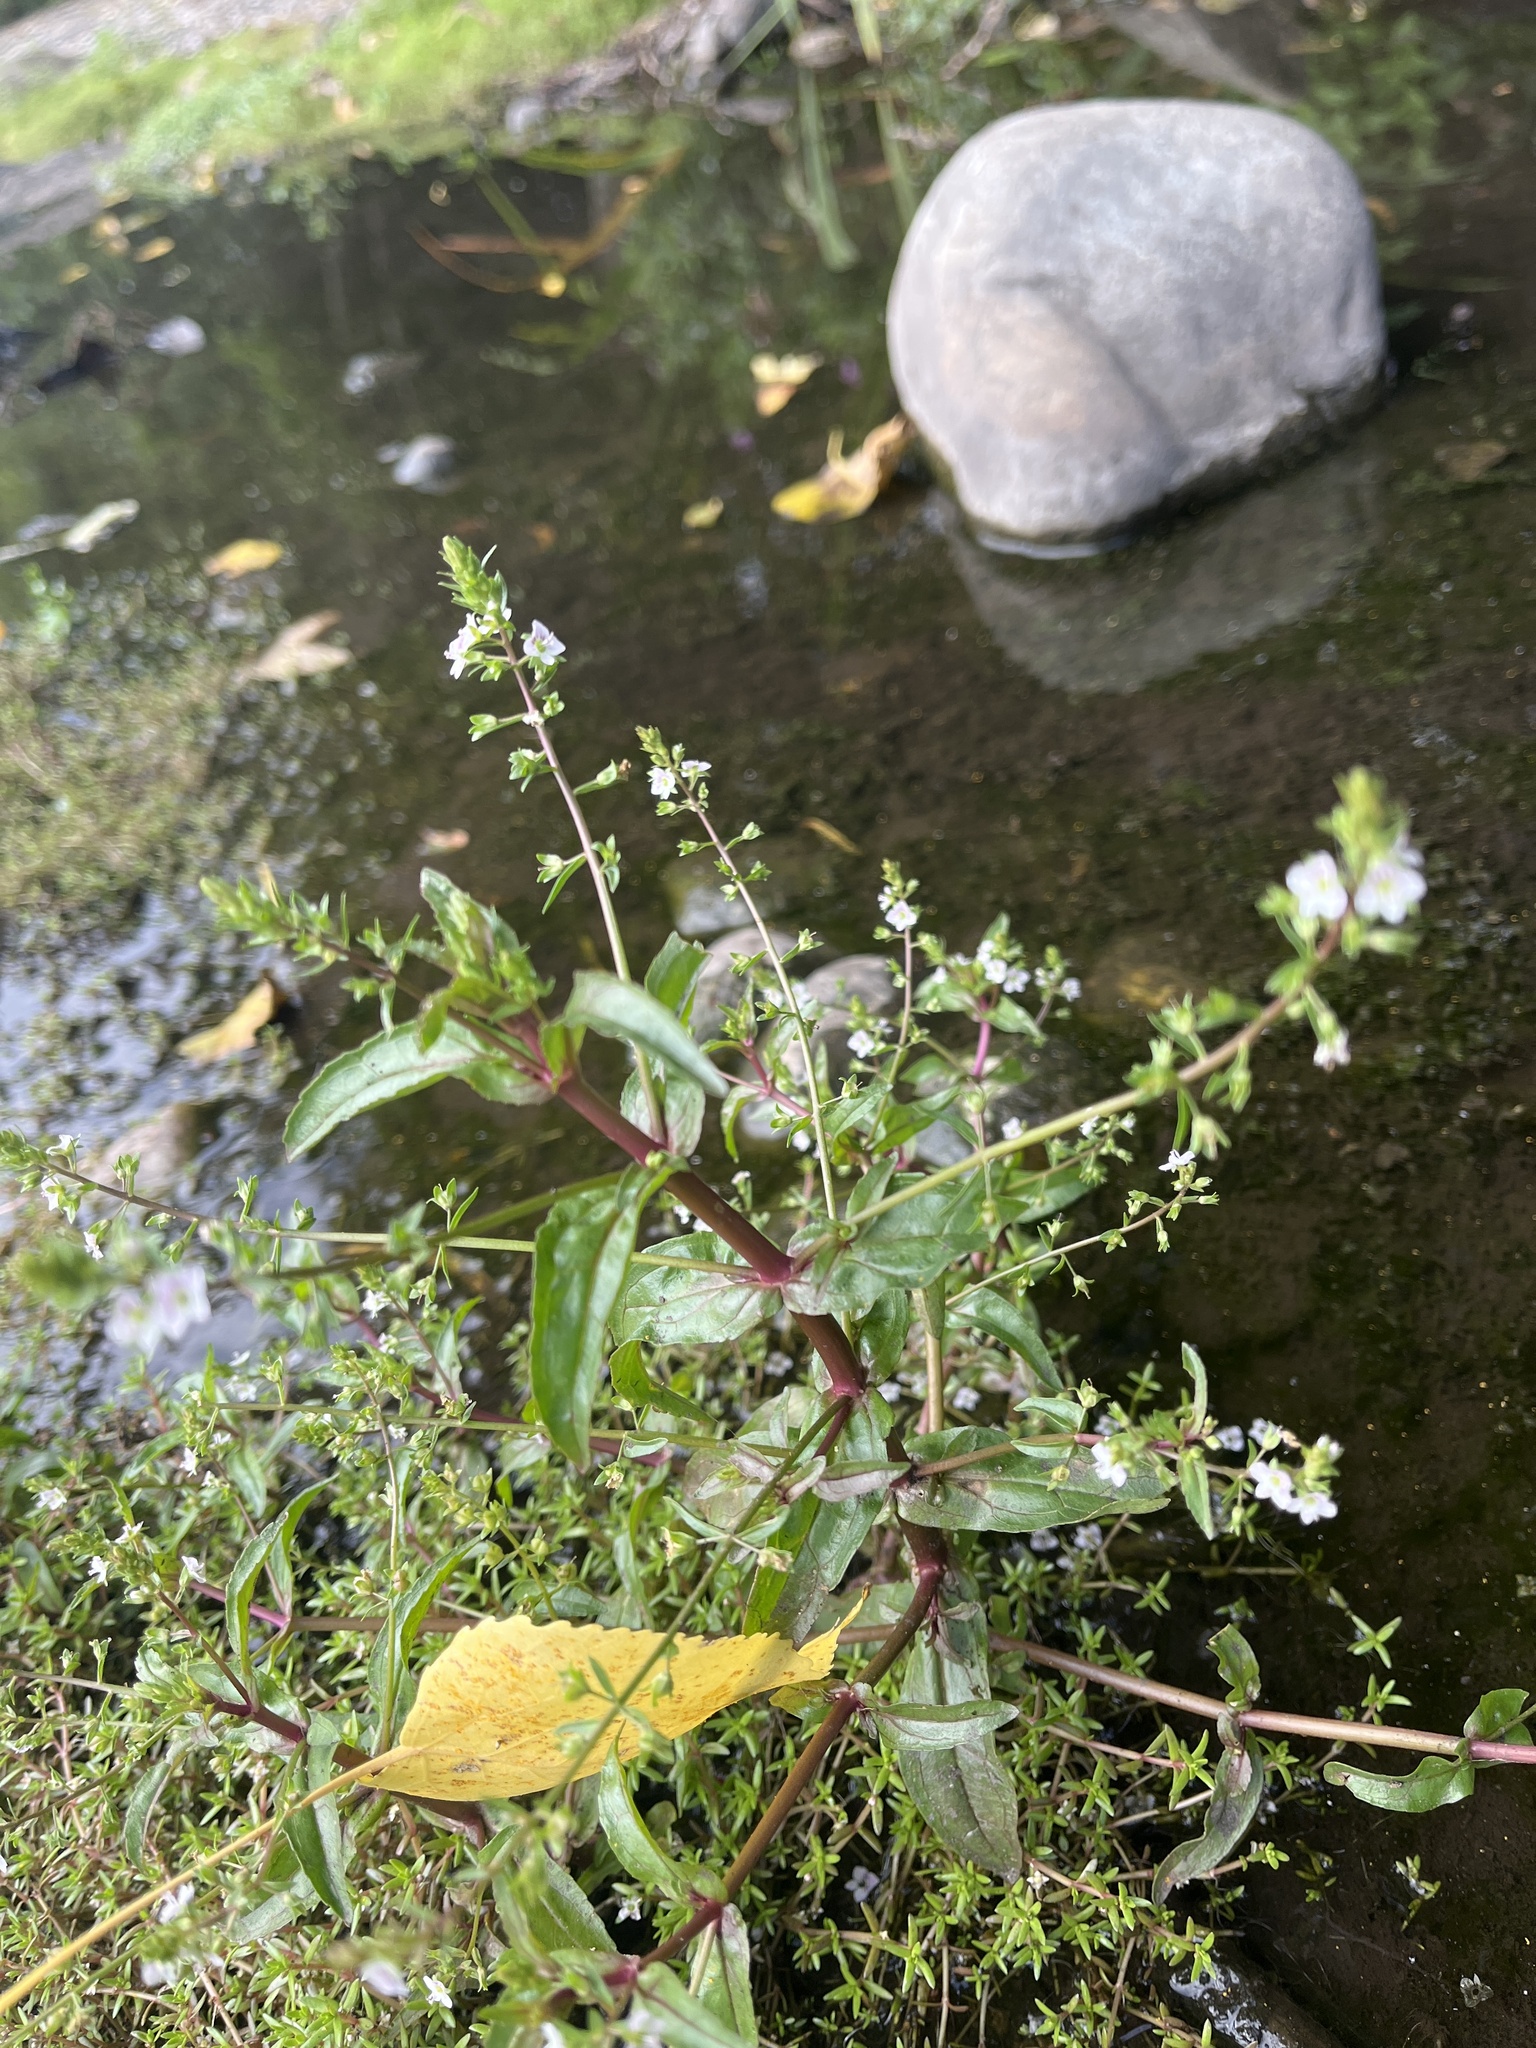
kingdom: Plantae
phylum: Tracheophyta
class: Magnoliopsida
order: Lamiales
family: Plantaginaceae
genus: Veronica
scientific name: Veronica catenata
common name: Pink water-speedwell
